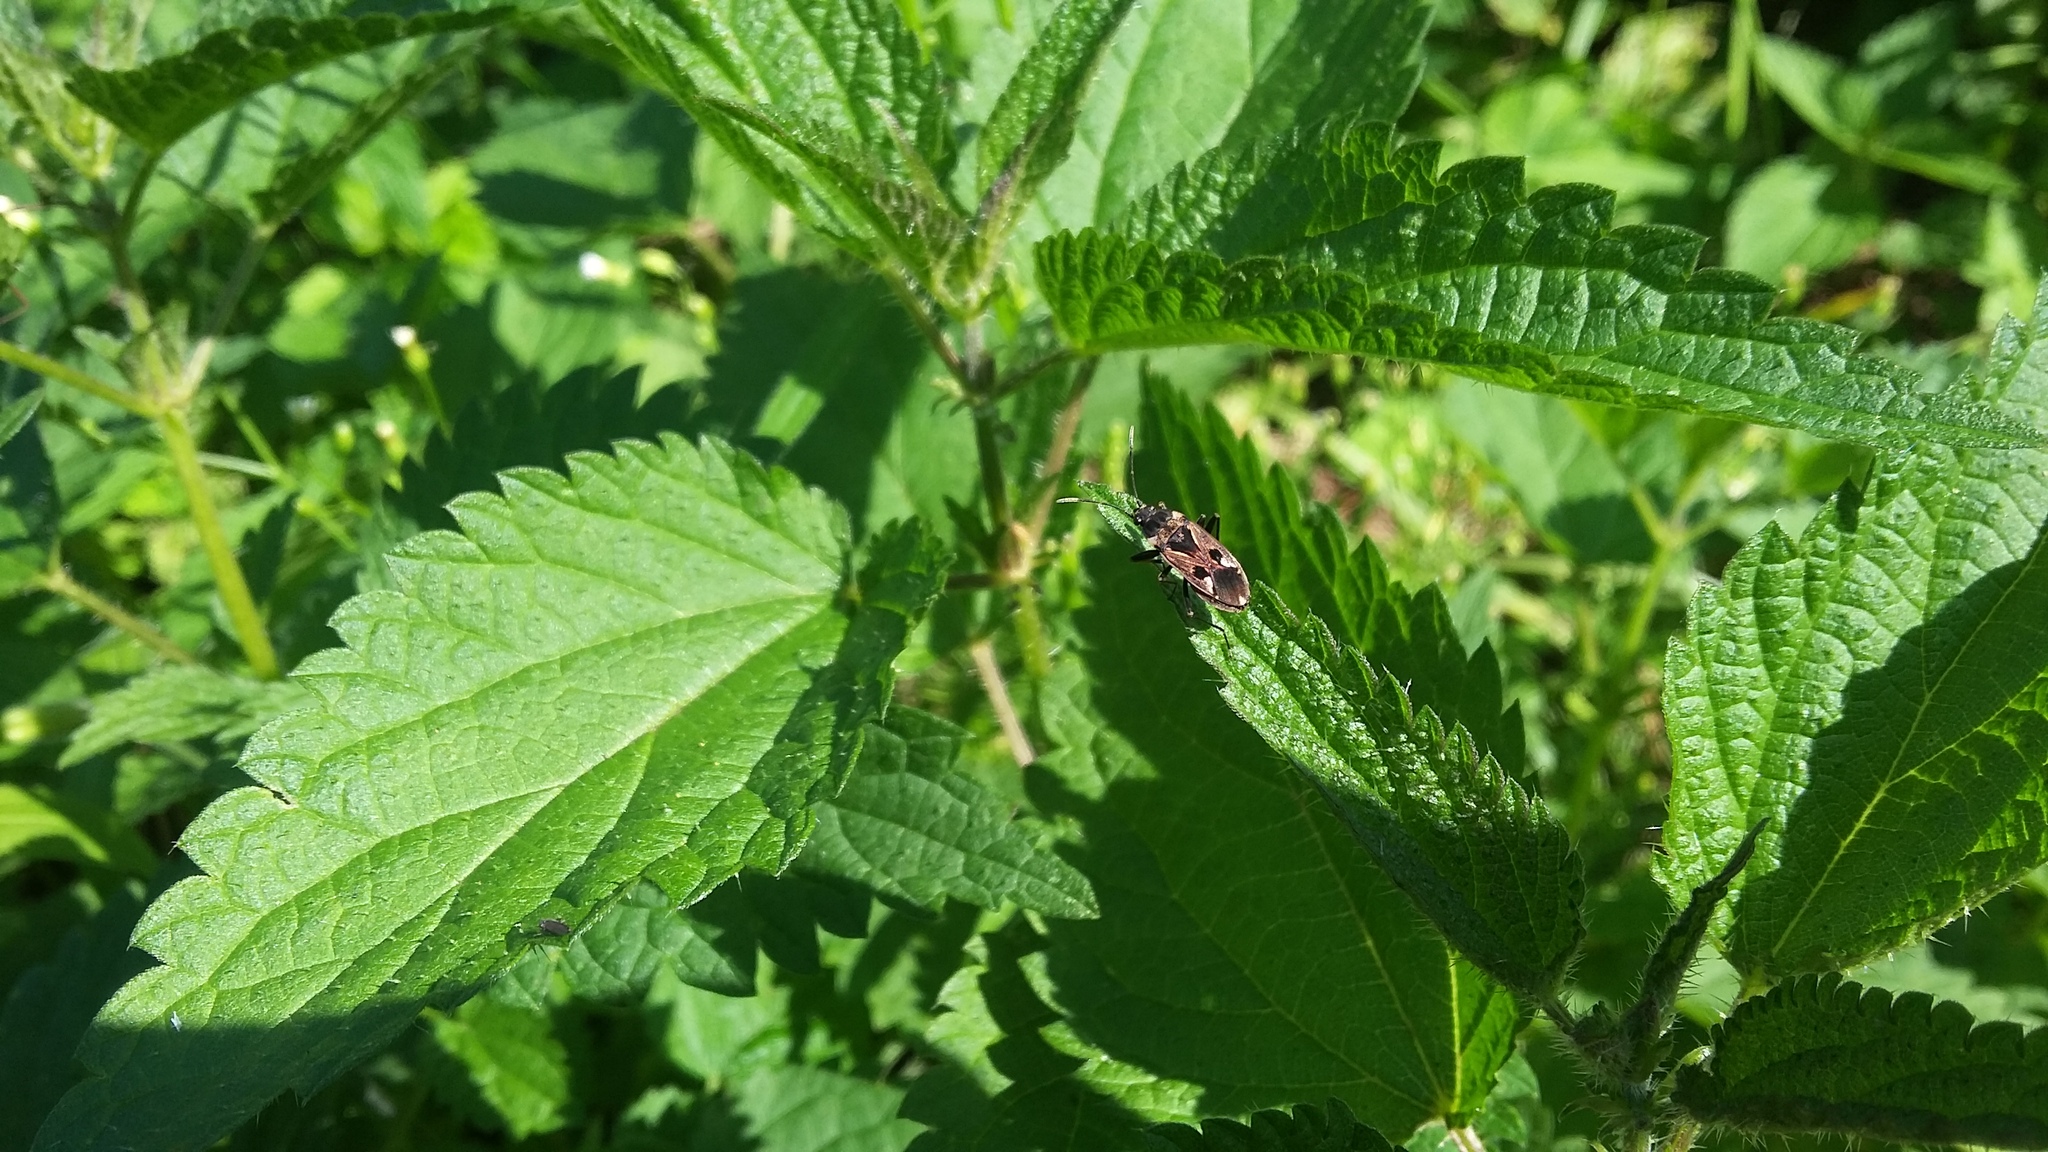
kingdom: Animalia
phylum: Arthropoda
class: Insecta
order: Hemiptera
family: Rhyparochromidae
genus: Rhyparochromus
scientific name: Rhyparochromus vulgaris
